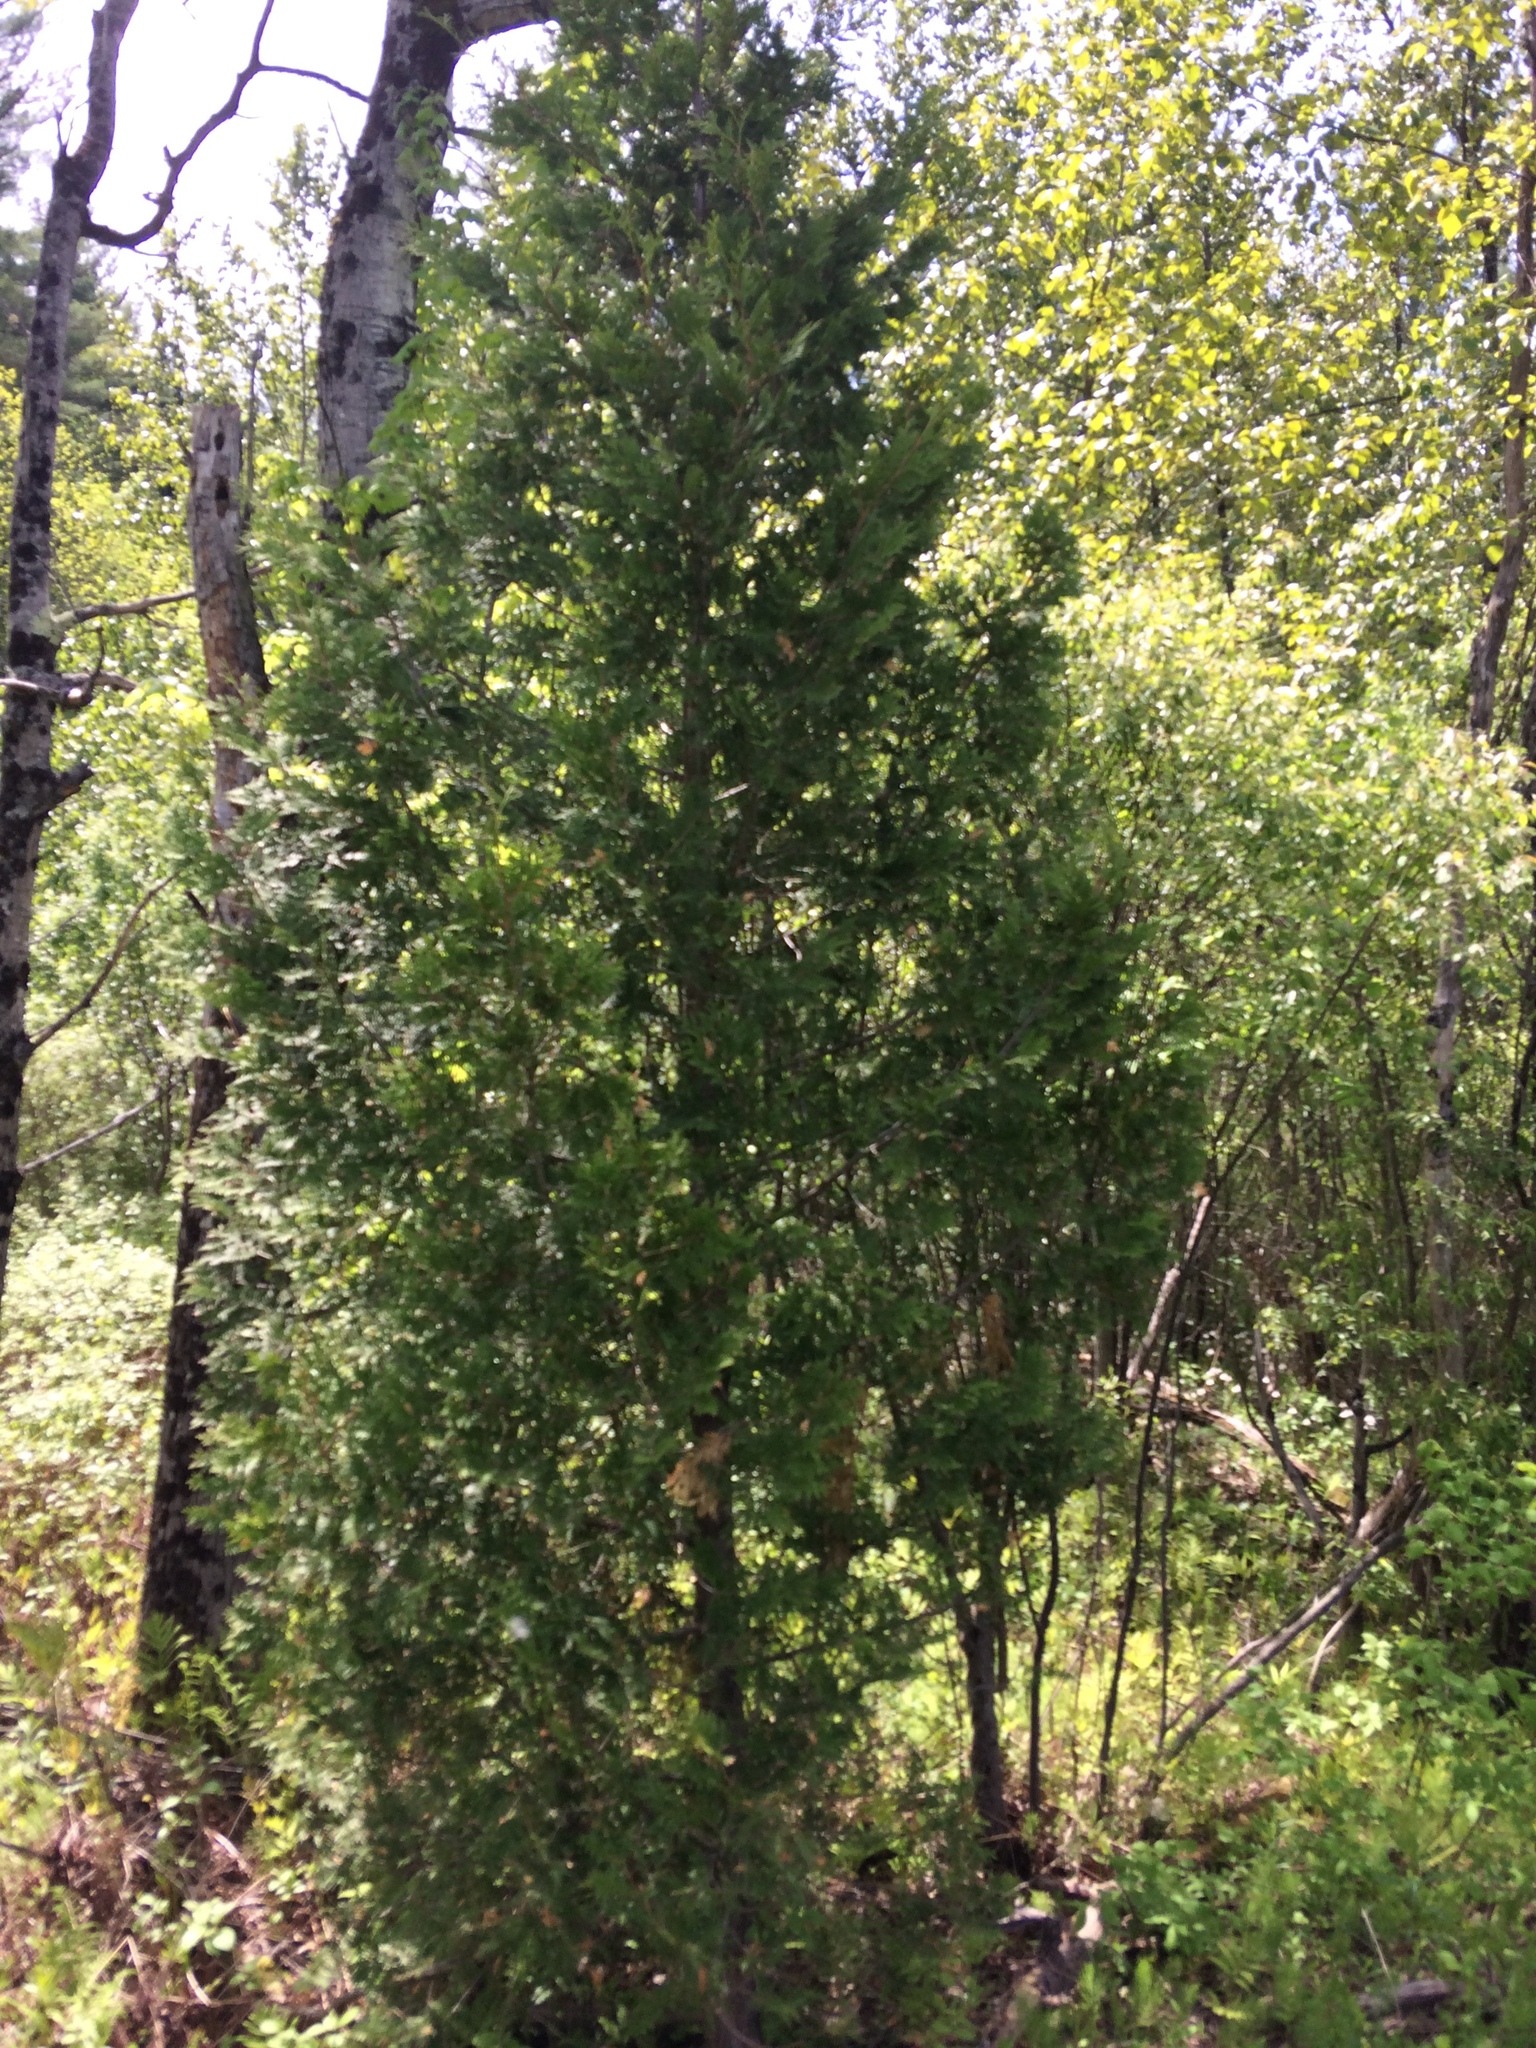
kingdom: Plantae
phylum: Tracheophyta
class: Pinopsida
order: Pinales
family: Cupressaceae
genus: Thuja
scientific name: Thuja occidentalis
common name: Northern white-cedar
